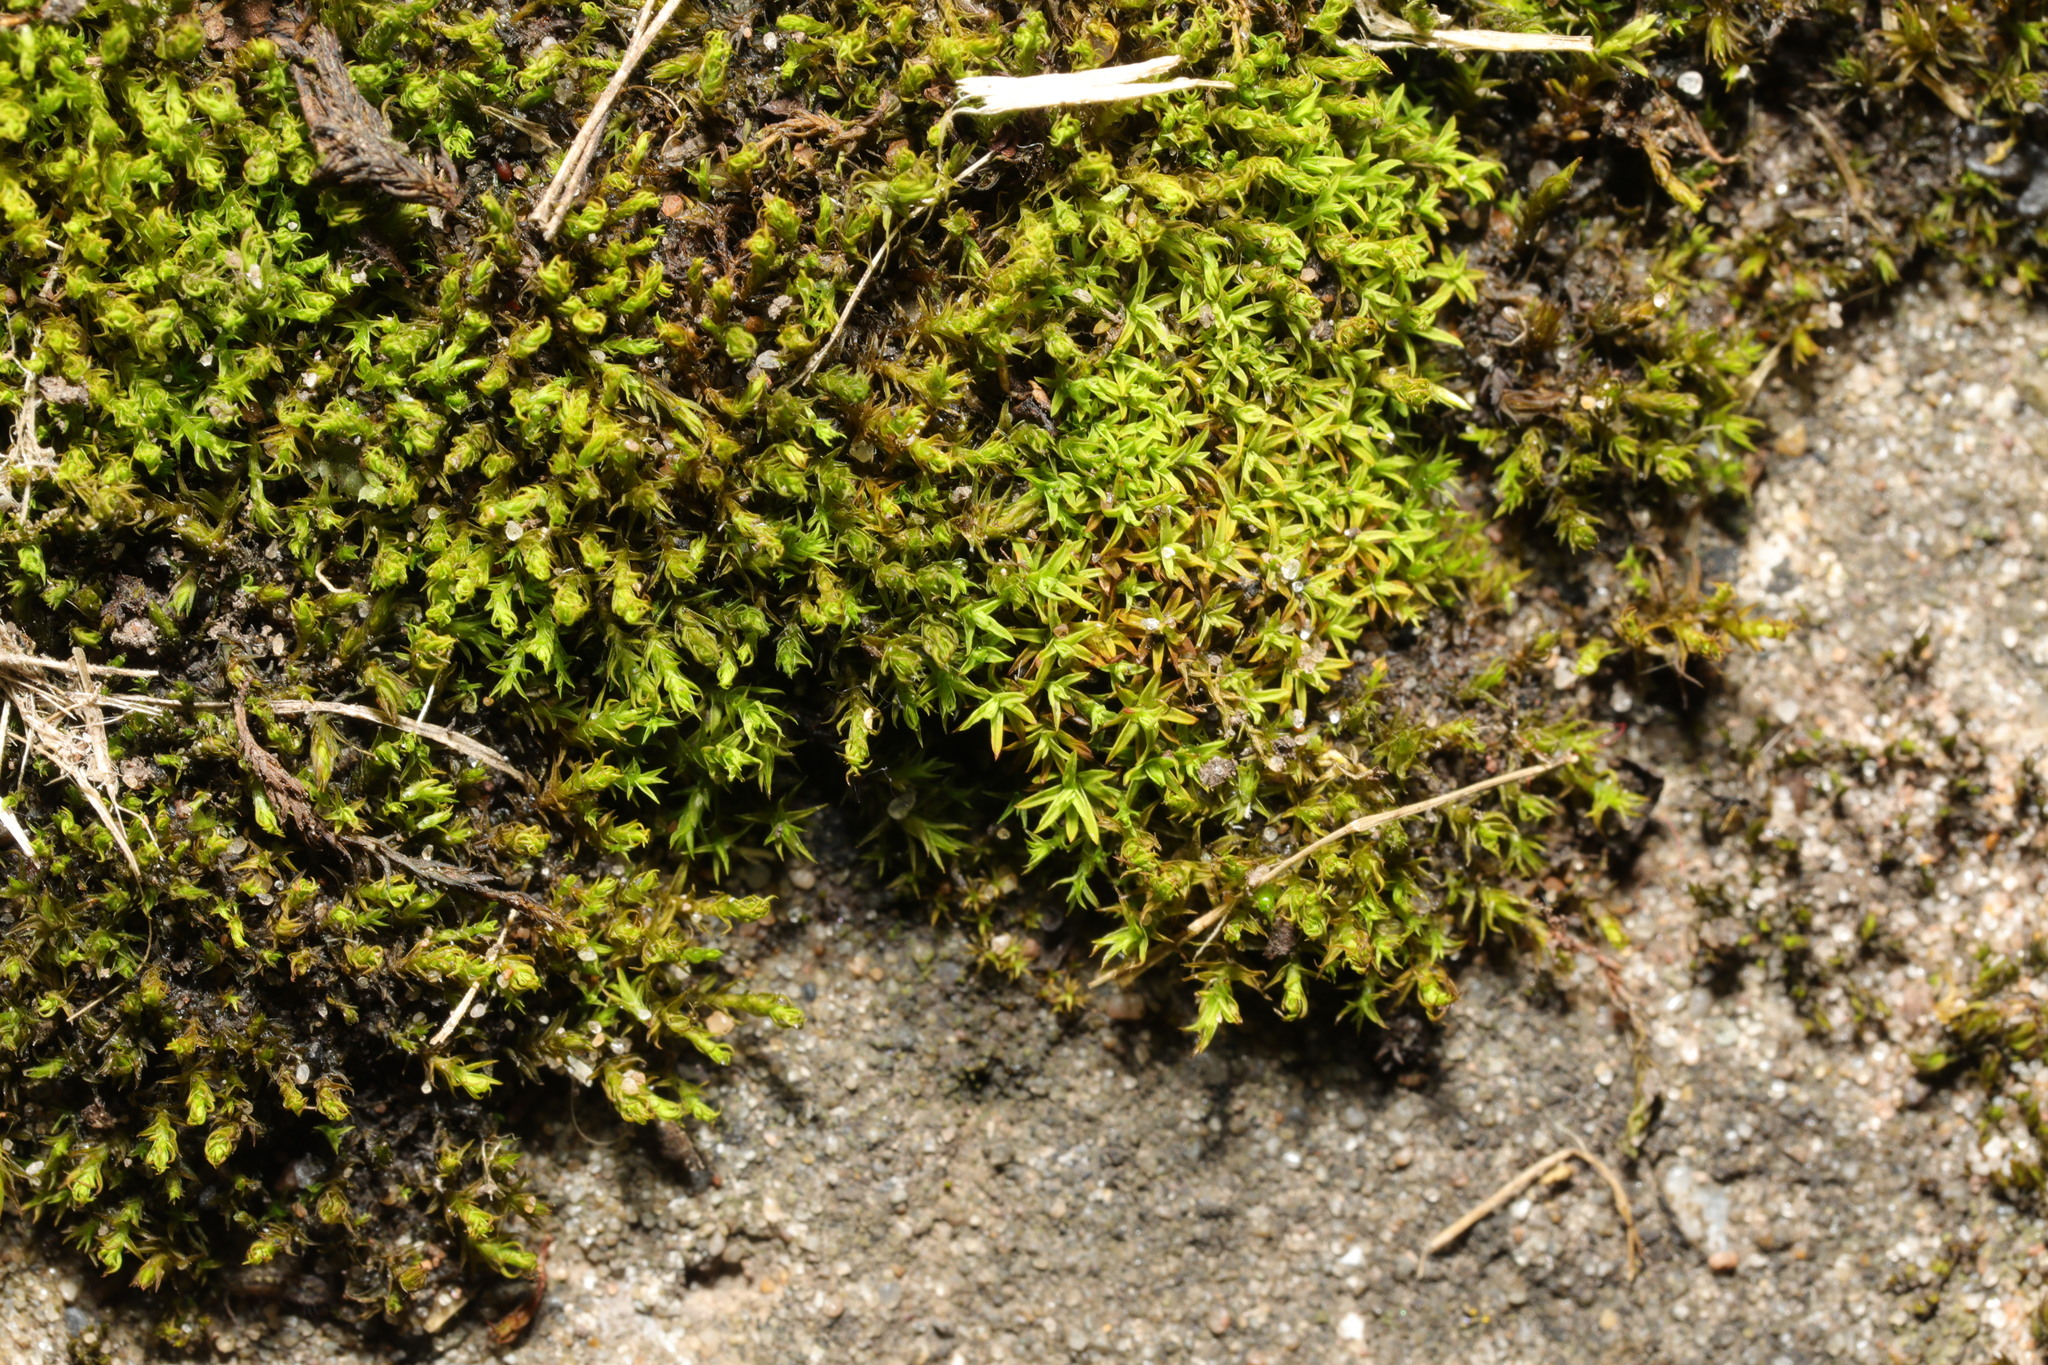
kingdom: Plantae
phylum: Bryophyta
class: Bryopsida
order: Pottiales
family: Pottiaceae
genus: Trichostomum
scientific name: Trichostomum brachydontium
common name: Variable crisp-moss
